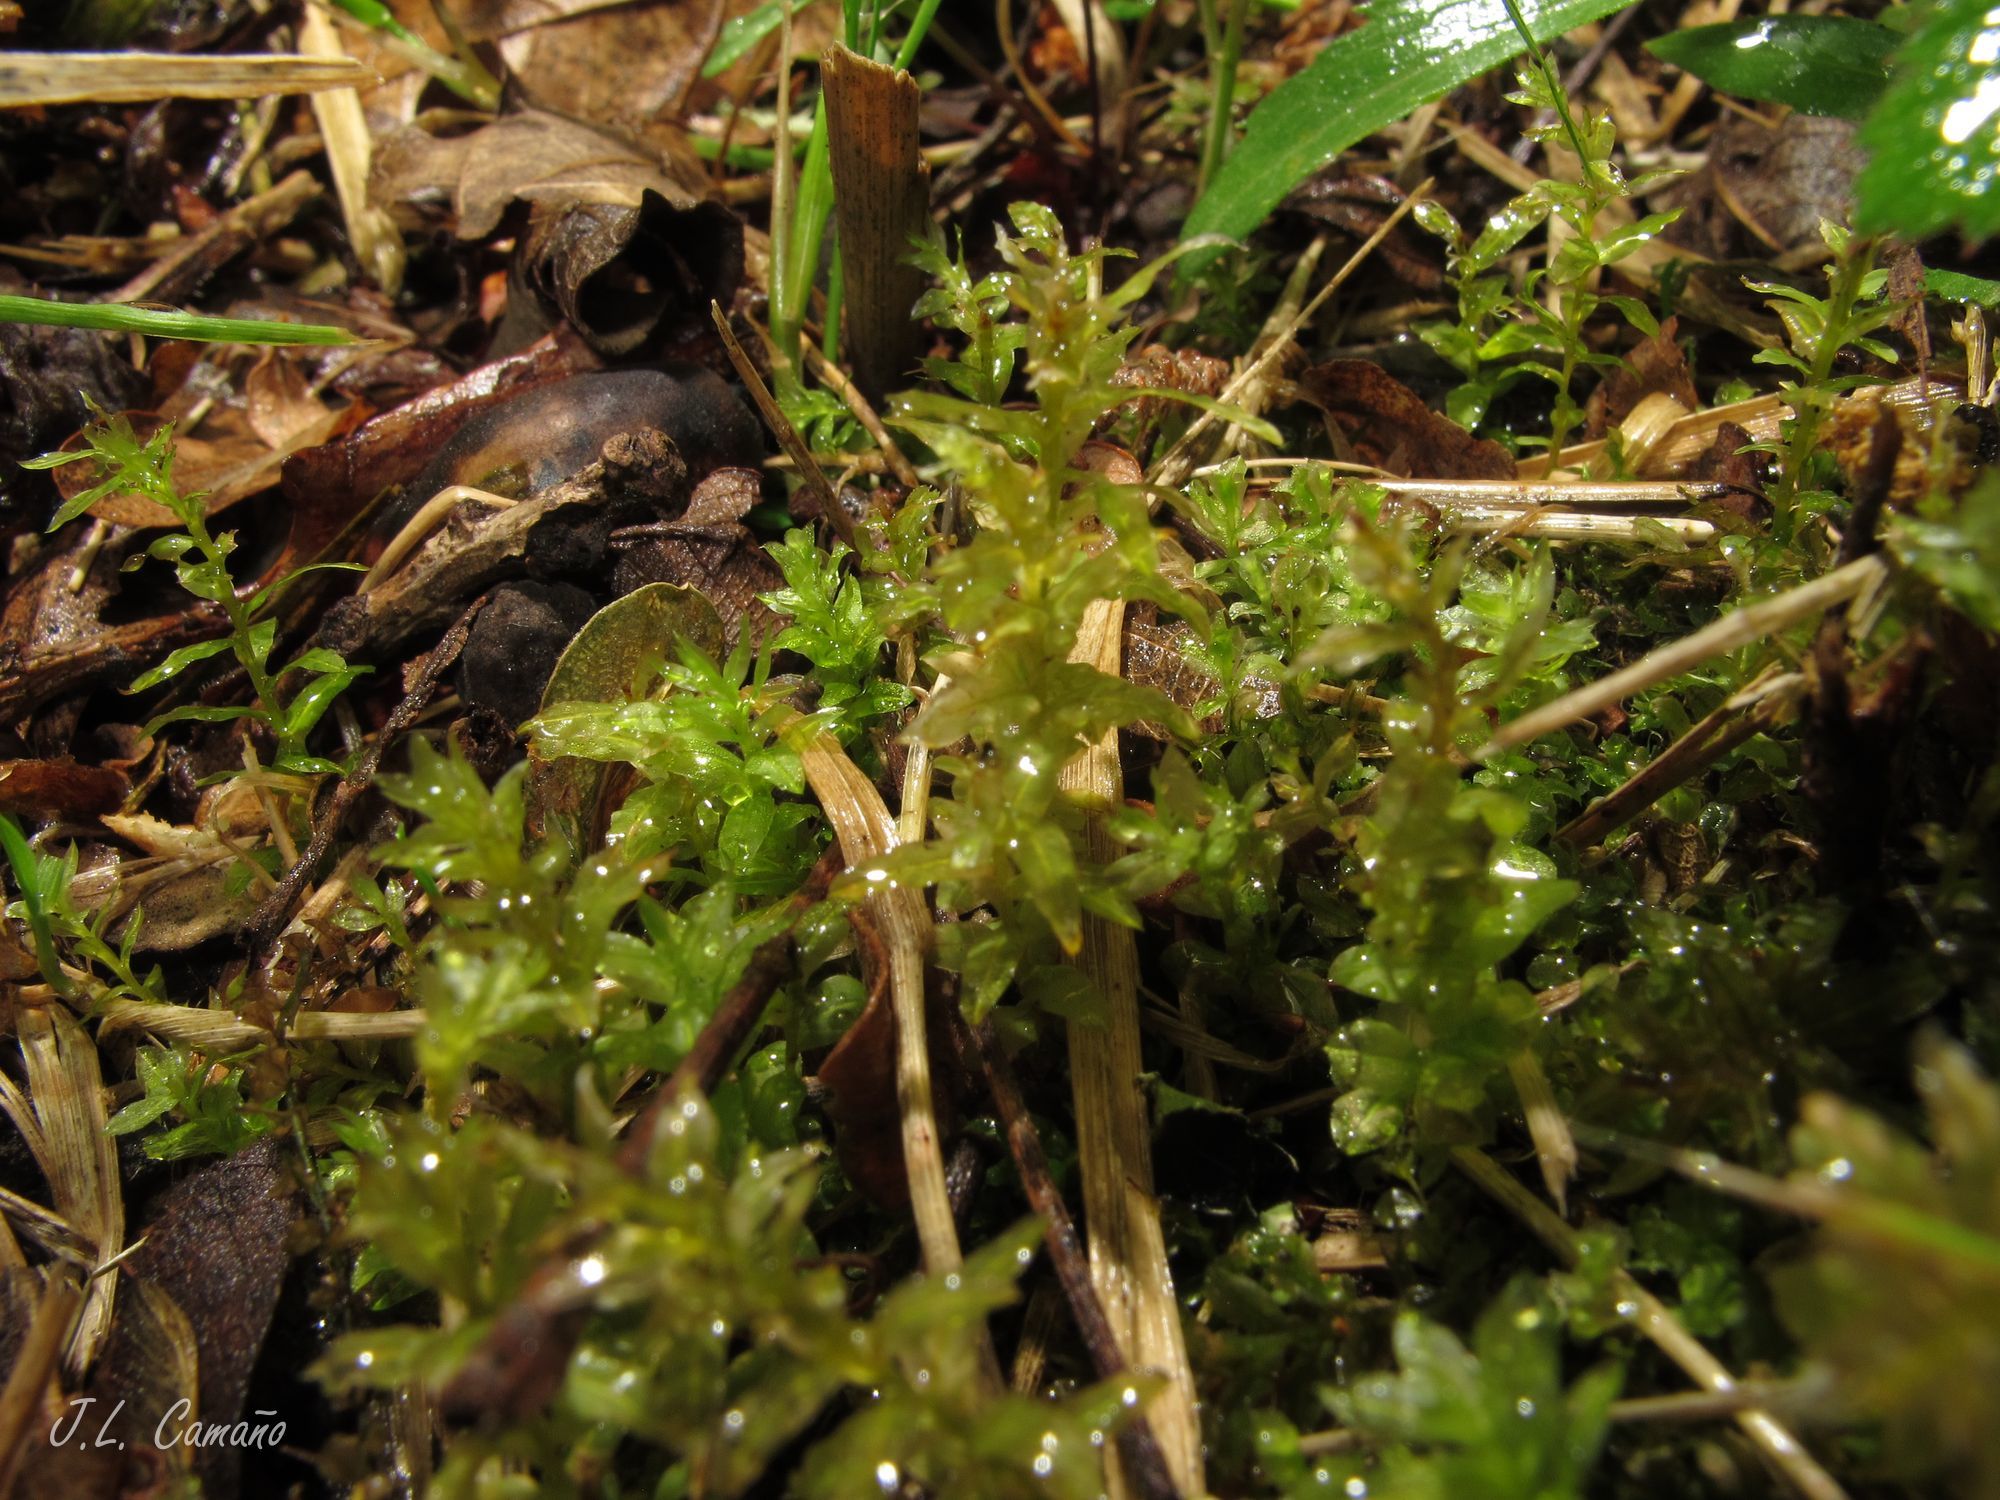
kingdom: Plantae
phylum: Bryophyta
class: Bryopsida
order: Bryales
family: Mniaceae
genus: Plagiomnium
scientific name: Plagiomnium undulatum
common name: Hart's-tongue thyme-moss
